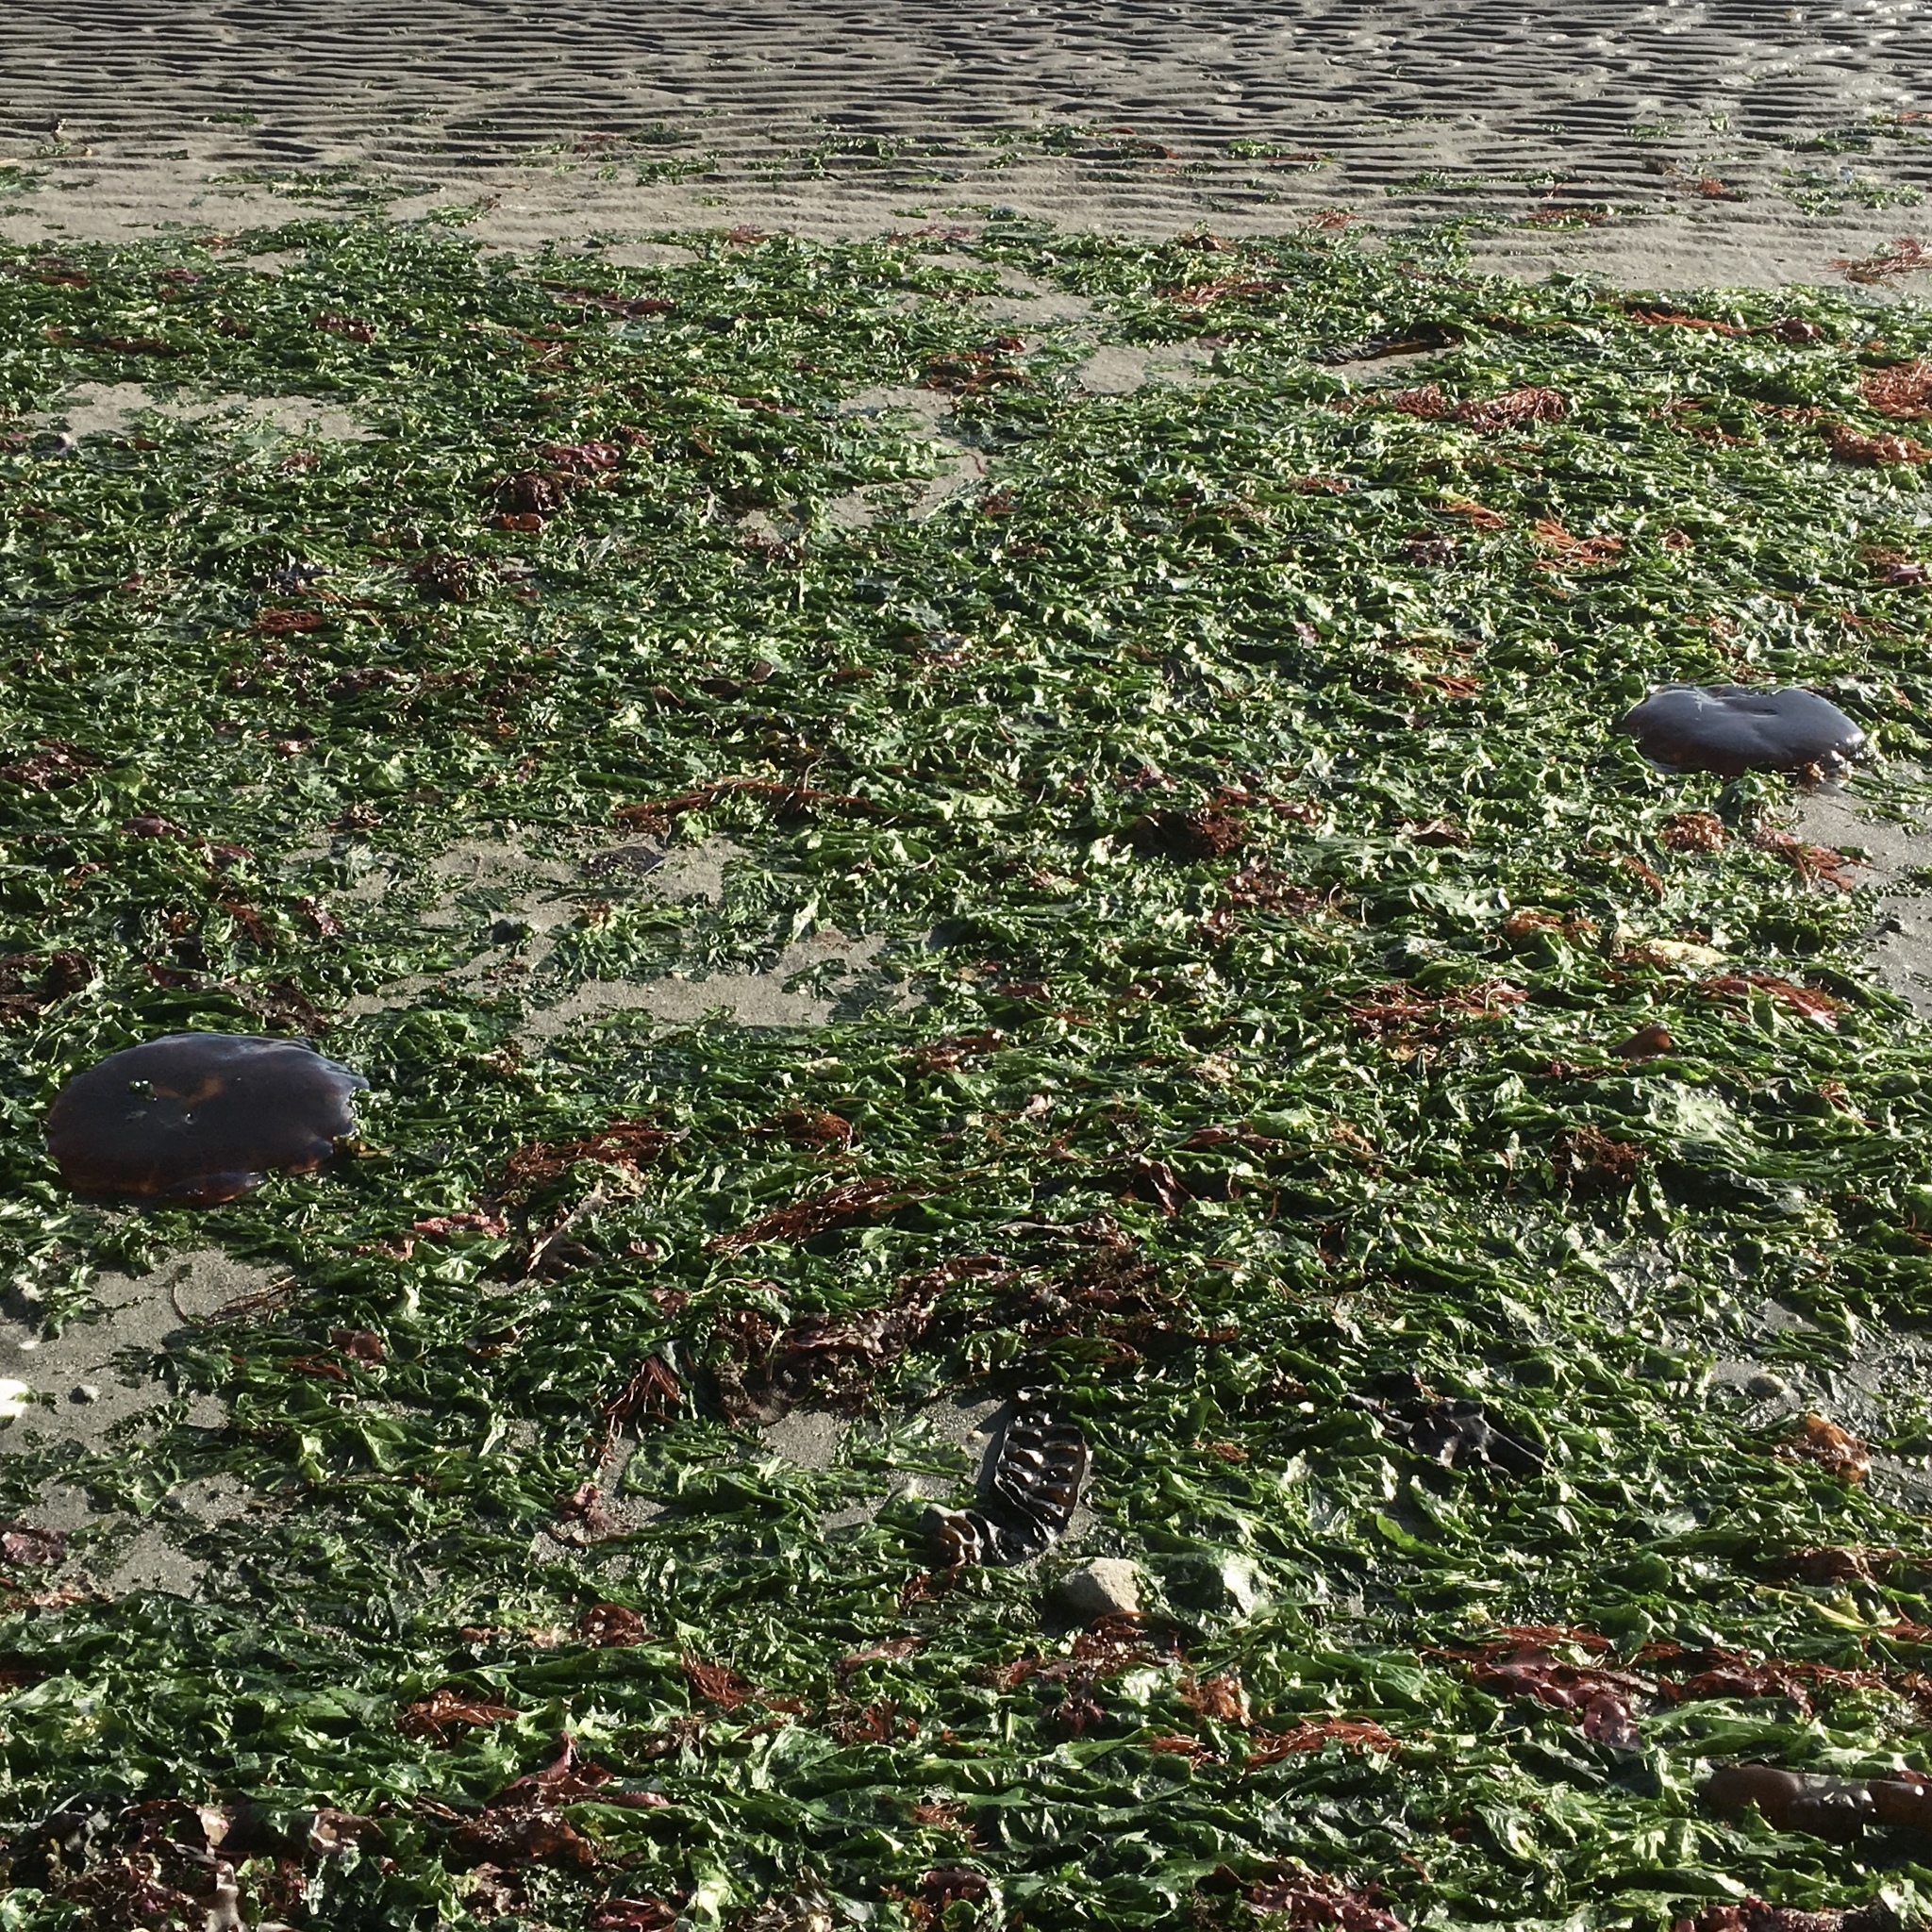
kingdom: Animalia
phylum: Cnidaria
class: Scyphozoa
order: Semaeostomeae
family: Cyaneidae
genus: Cyanea
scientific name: Cyanea ferruginea
